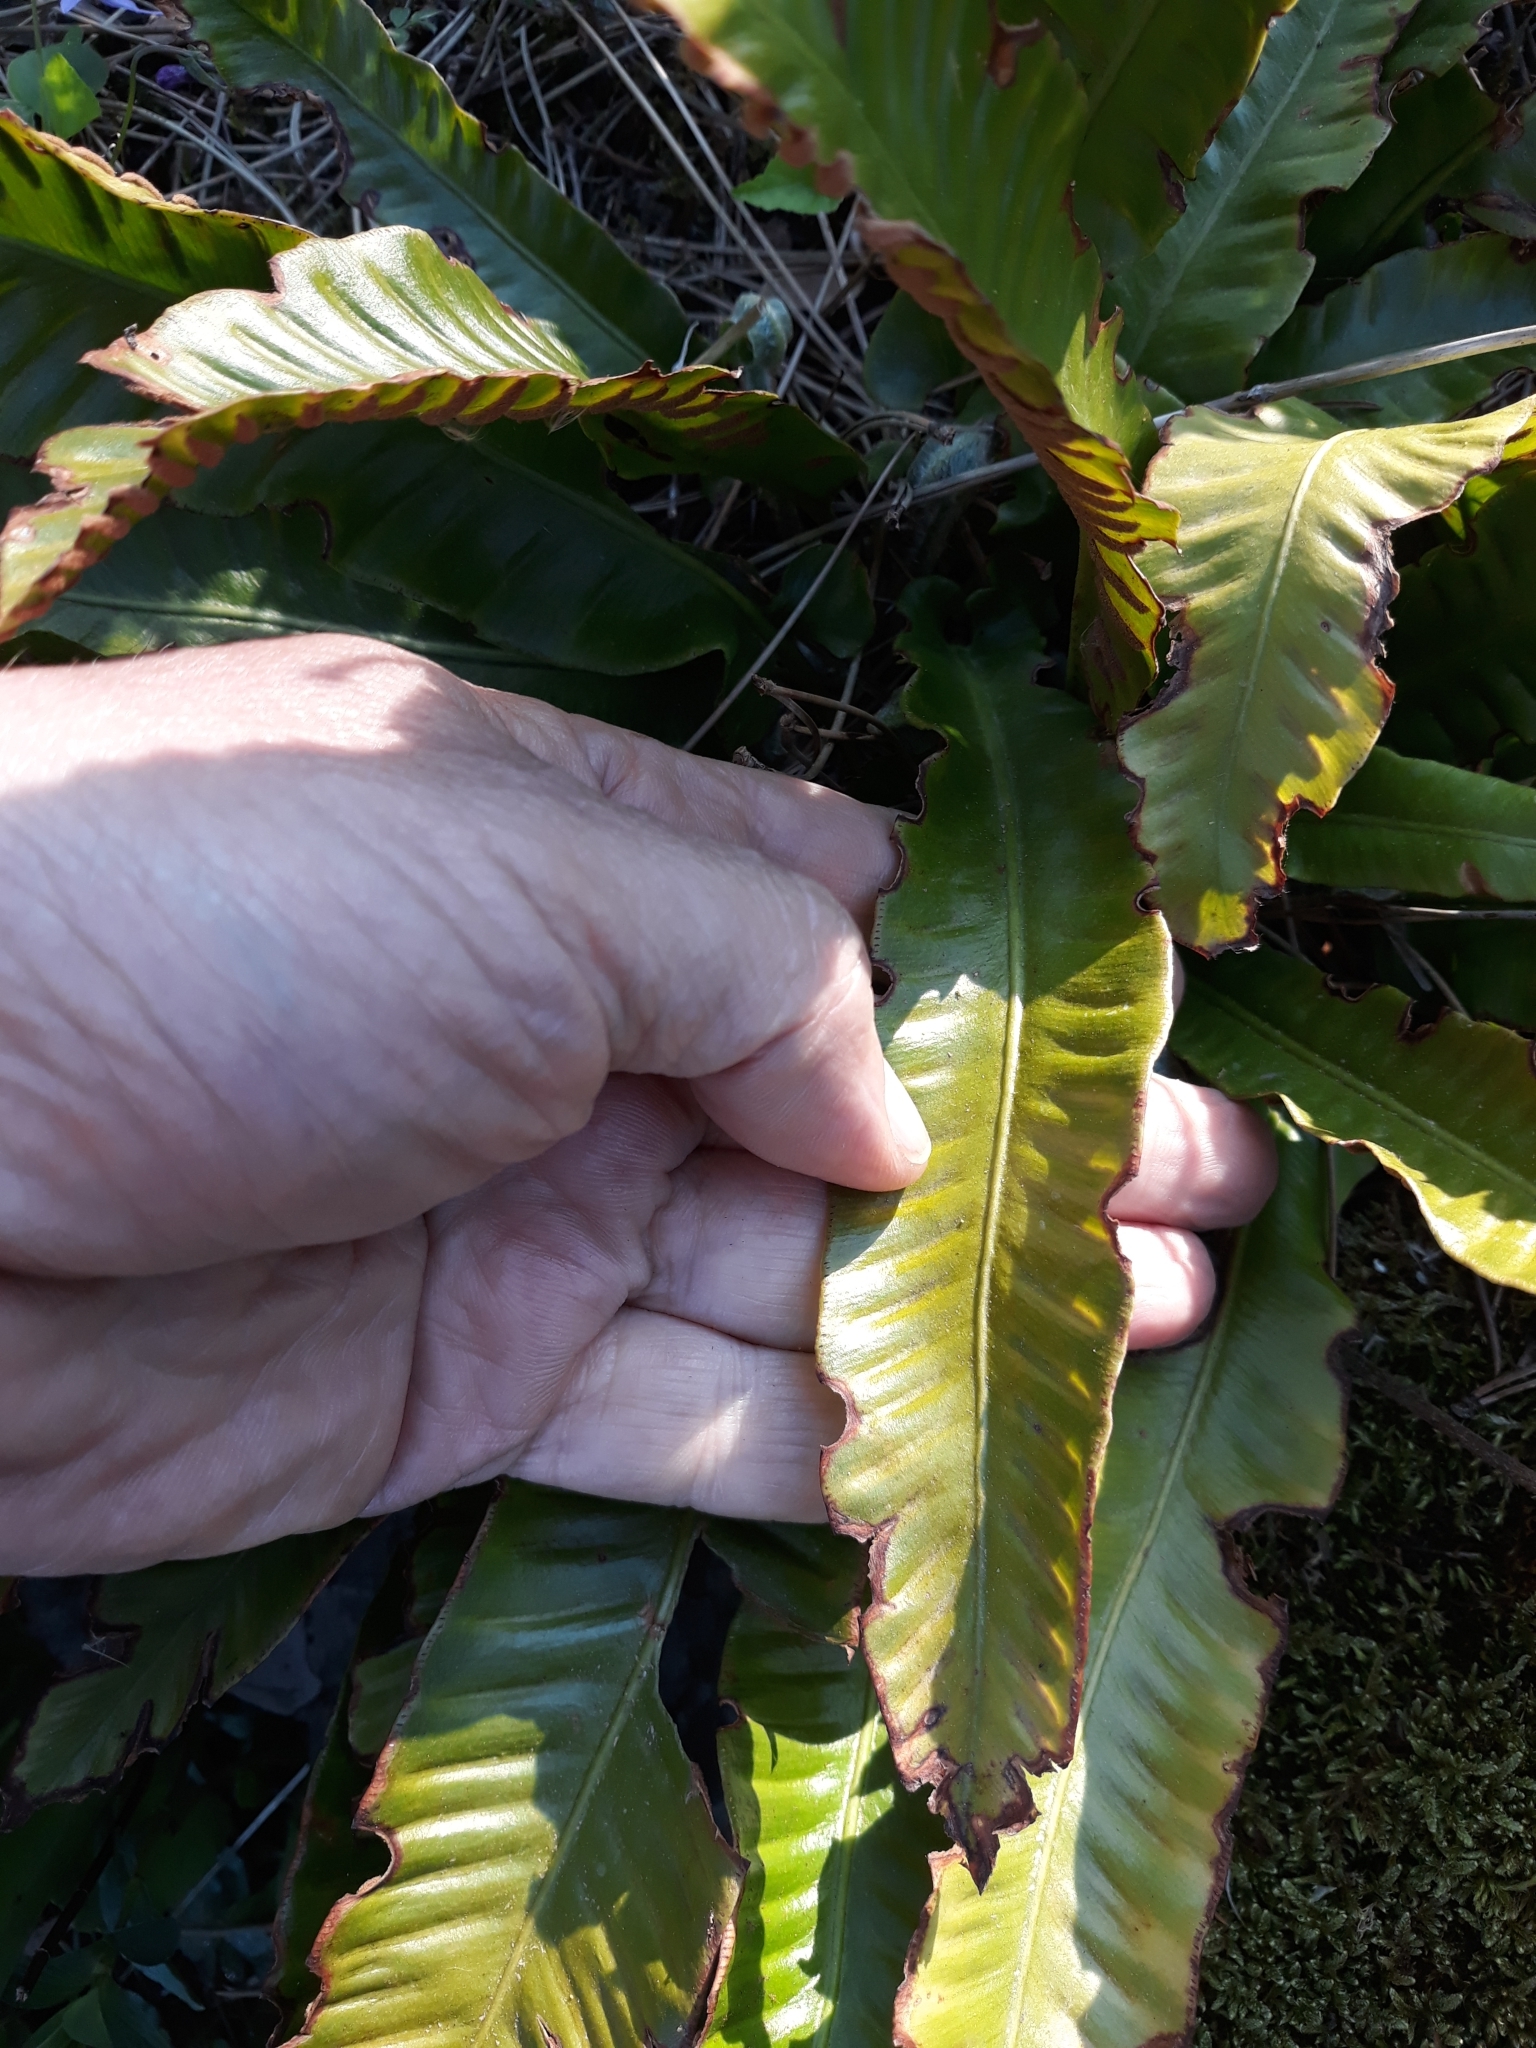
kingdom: Plantae
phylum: Tracheophyta
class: Polypodiopsida
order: Polypodiales
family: Aspleniaceae
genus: Asplenium
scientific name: Asplenium scolopendrium
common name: Hart's-tongue fern
